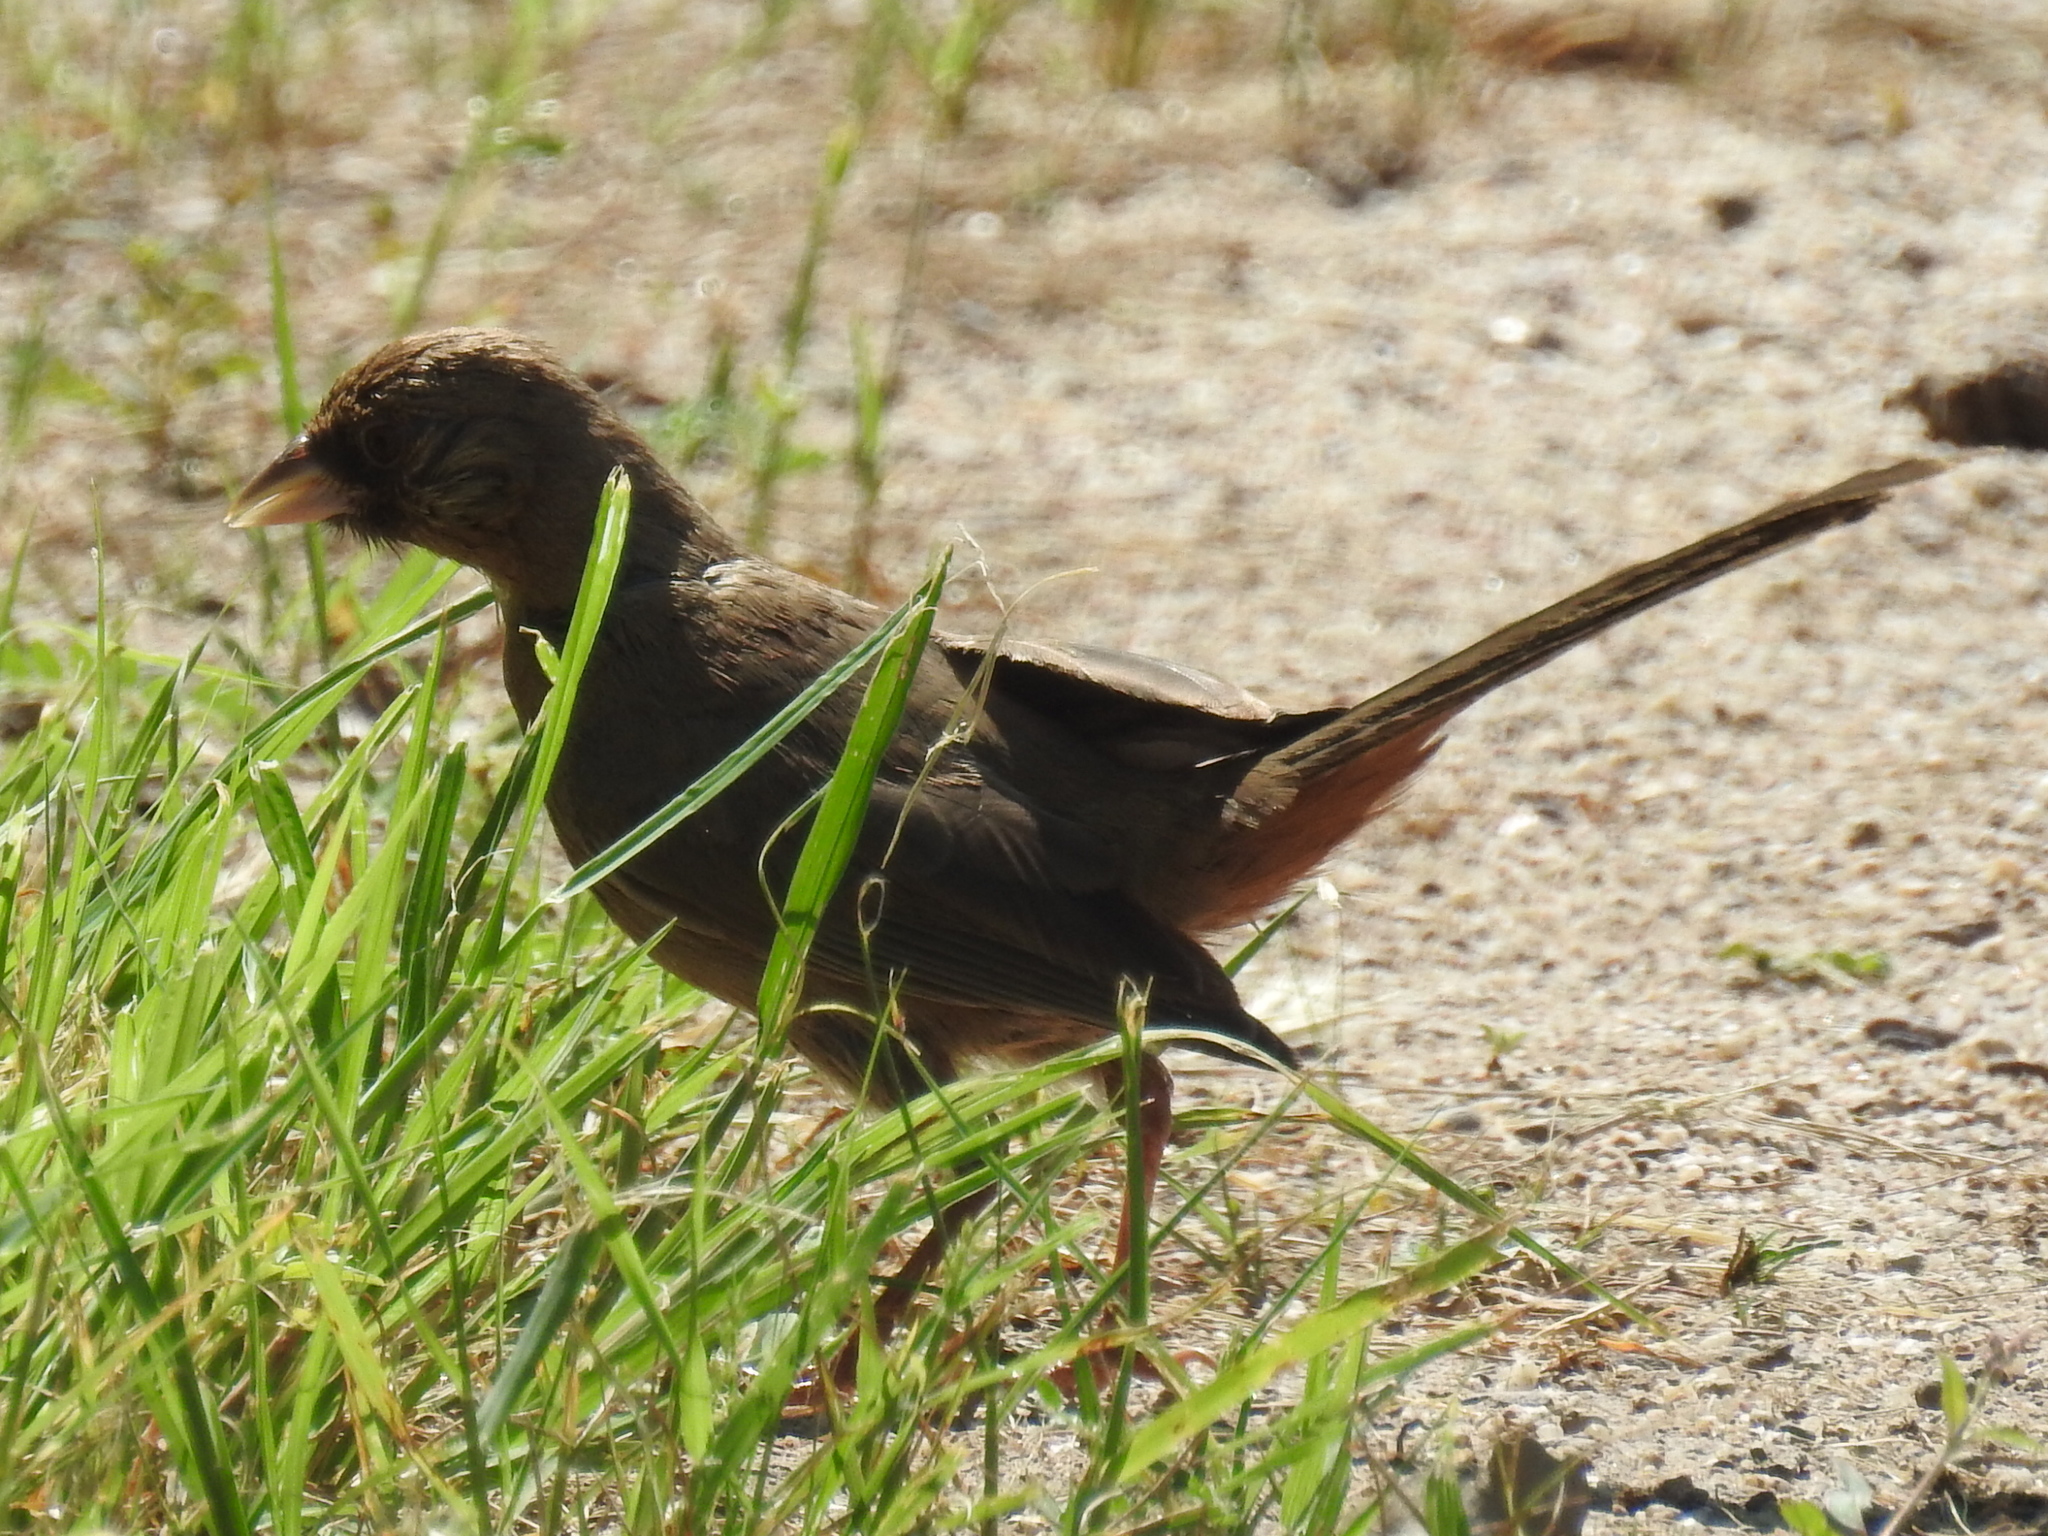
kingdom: Animalia
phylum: Chordata
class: Aves
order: Passeriformes
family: Passerellidae
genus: Melozone
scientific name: Melozone aberti
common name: Abert's towhee
